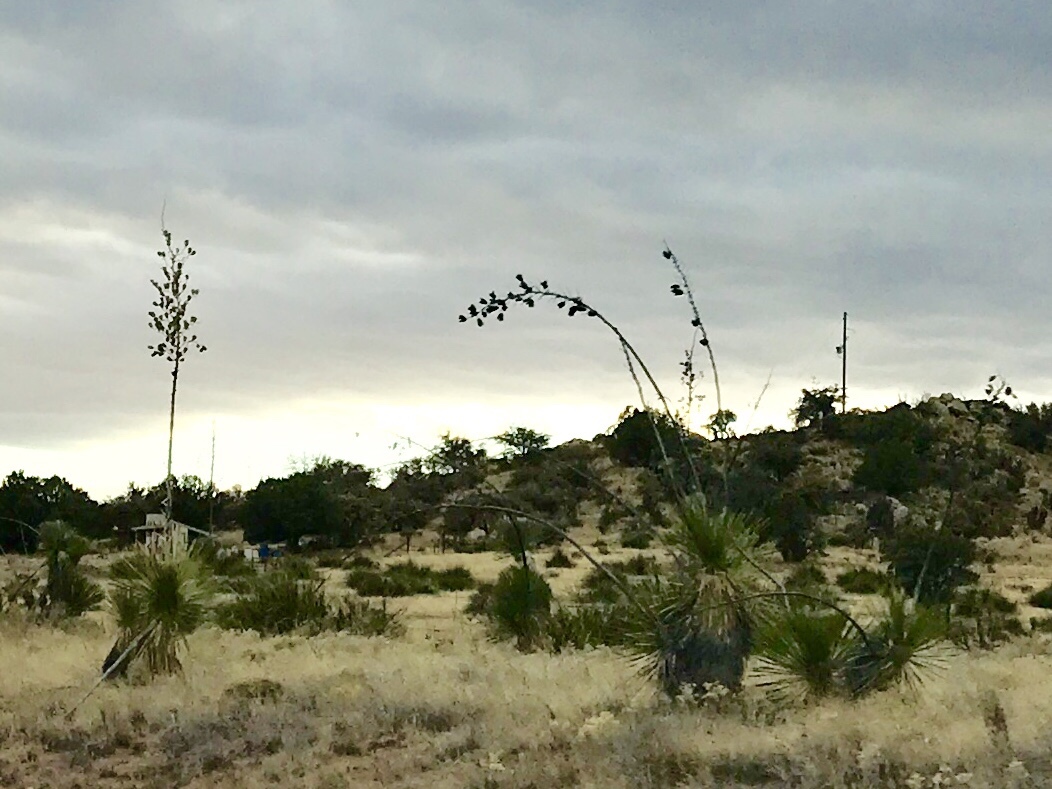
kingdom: Plantae
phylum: Tracheophyta
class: Liliopsida
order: Asparagales
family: Asparagaceae
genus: Yucca
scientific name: Yucca elata
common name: Palmella
